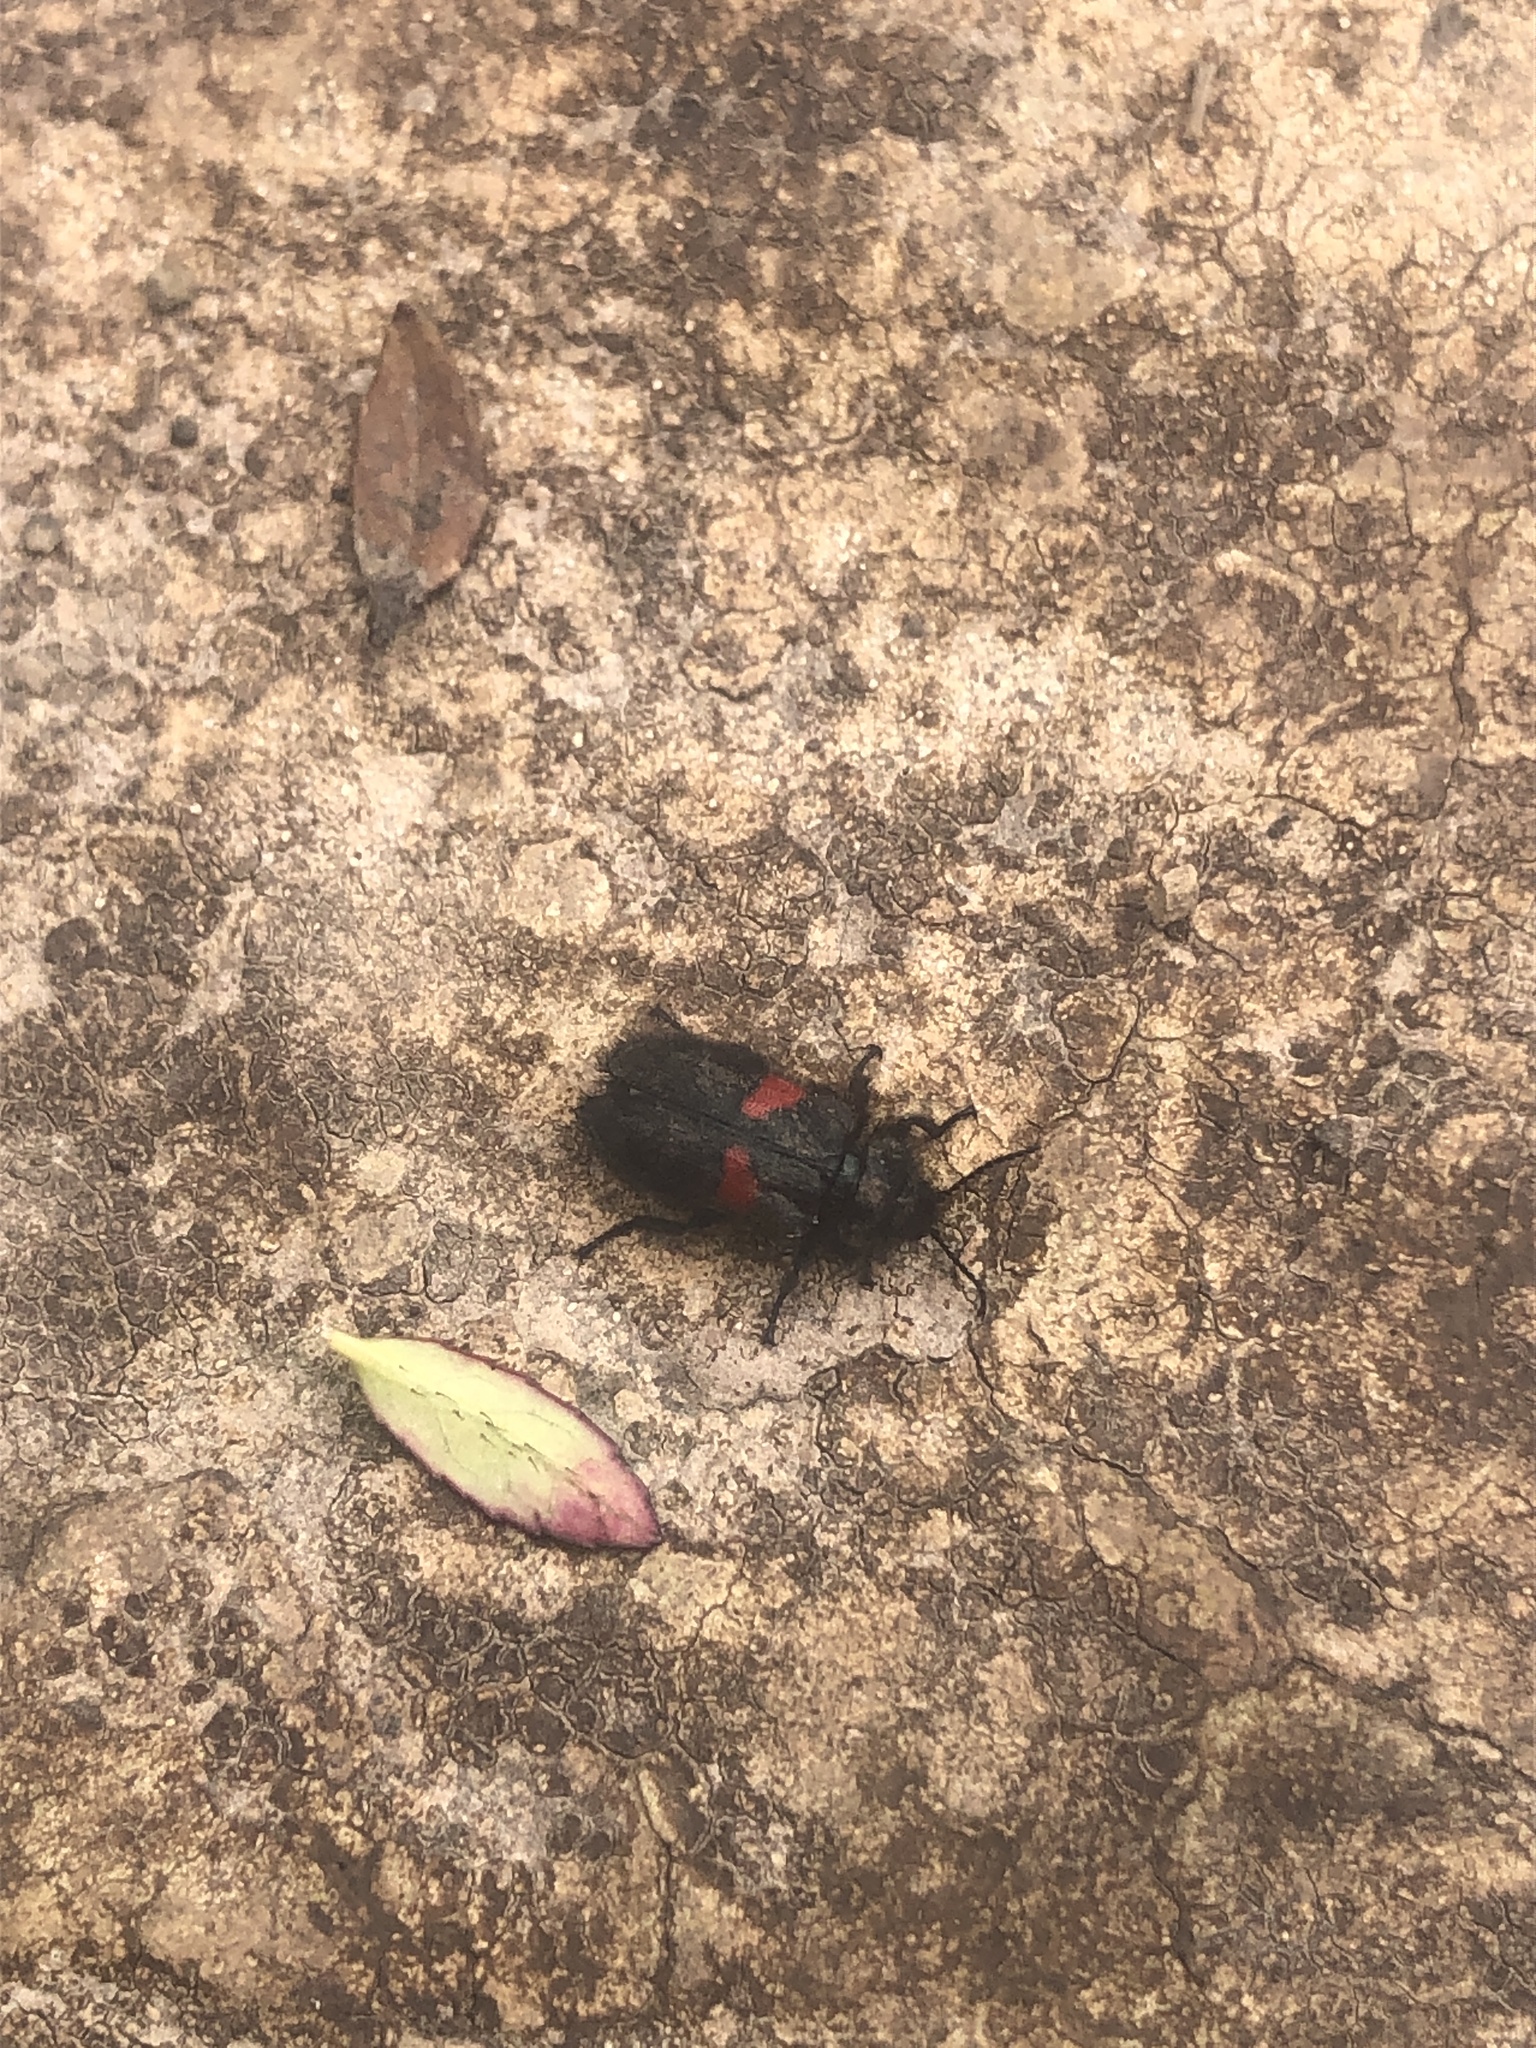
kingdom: Animalia
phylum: Arthropoda
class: Insecta
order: Coleoptera
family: Melyridae
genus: Astylus
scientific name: Astylus
